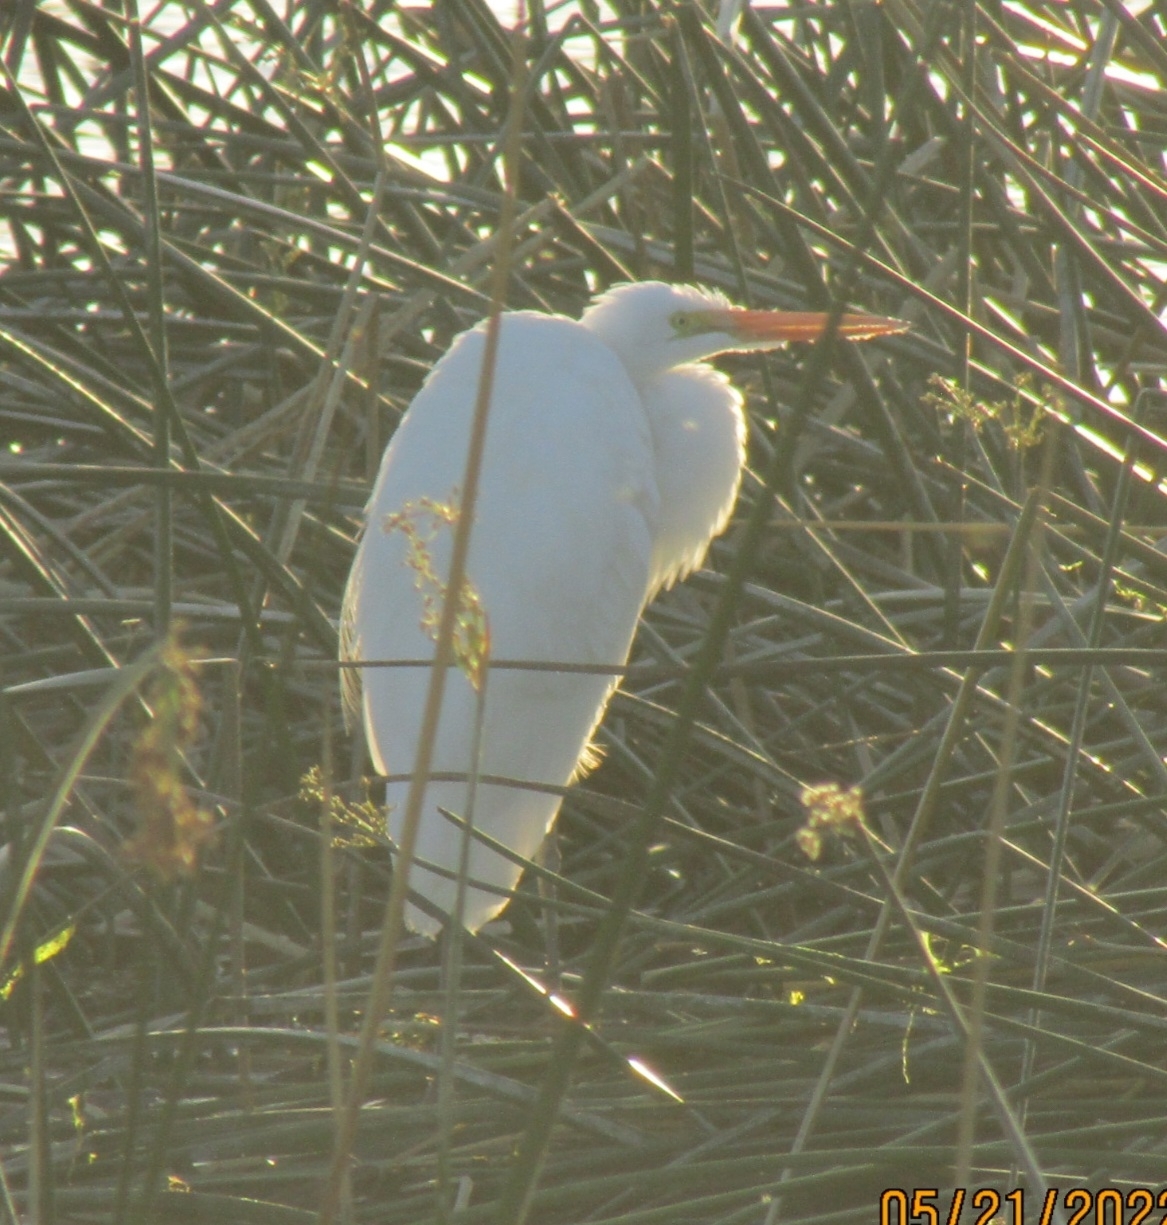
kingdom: Animalia
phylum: Chordata
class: Aves
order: Pelecaniformes
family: Ardeidae
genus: Ardea
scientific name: Ardea alba
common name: Great egret
